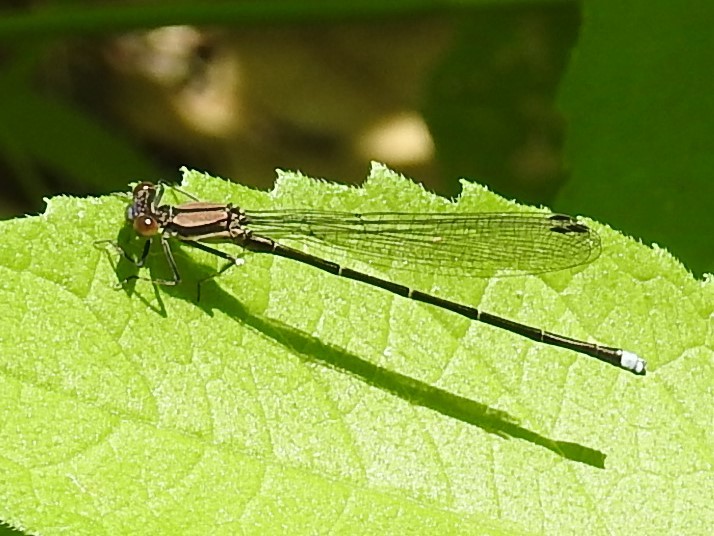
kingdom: Animalia
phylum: Arthropoda
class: Insecta
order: Odonata
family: Coenagrionidae
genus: Argia
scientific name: Argia tibialis
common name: Blue-tipped dancer
